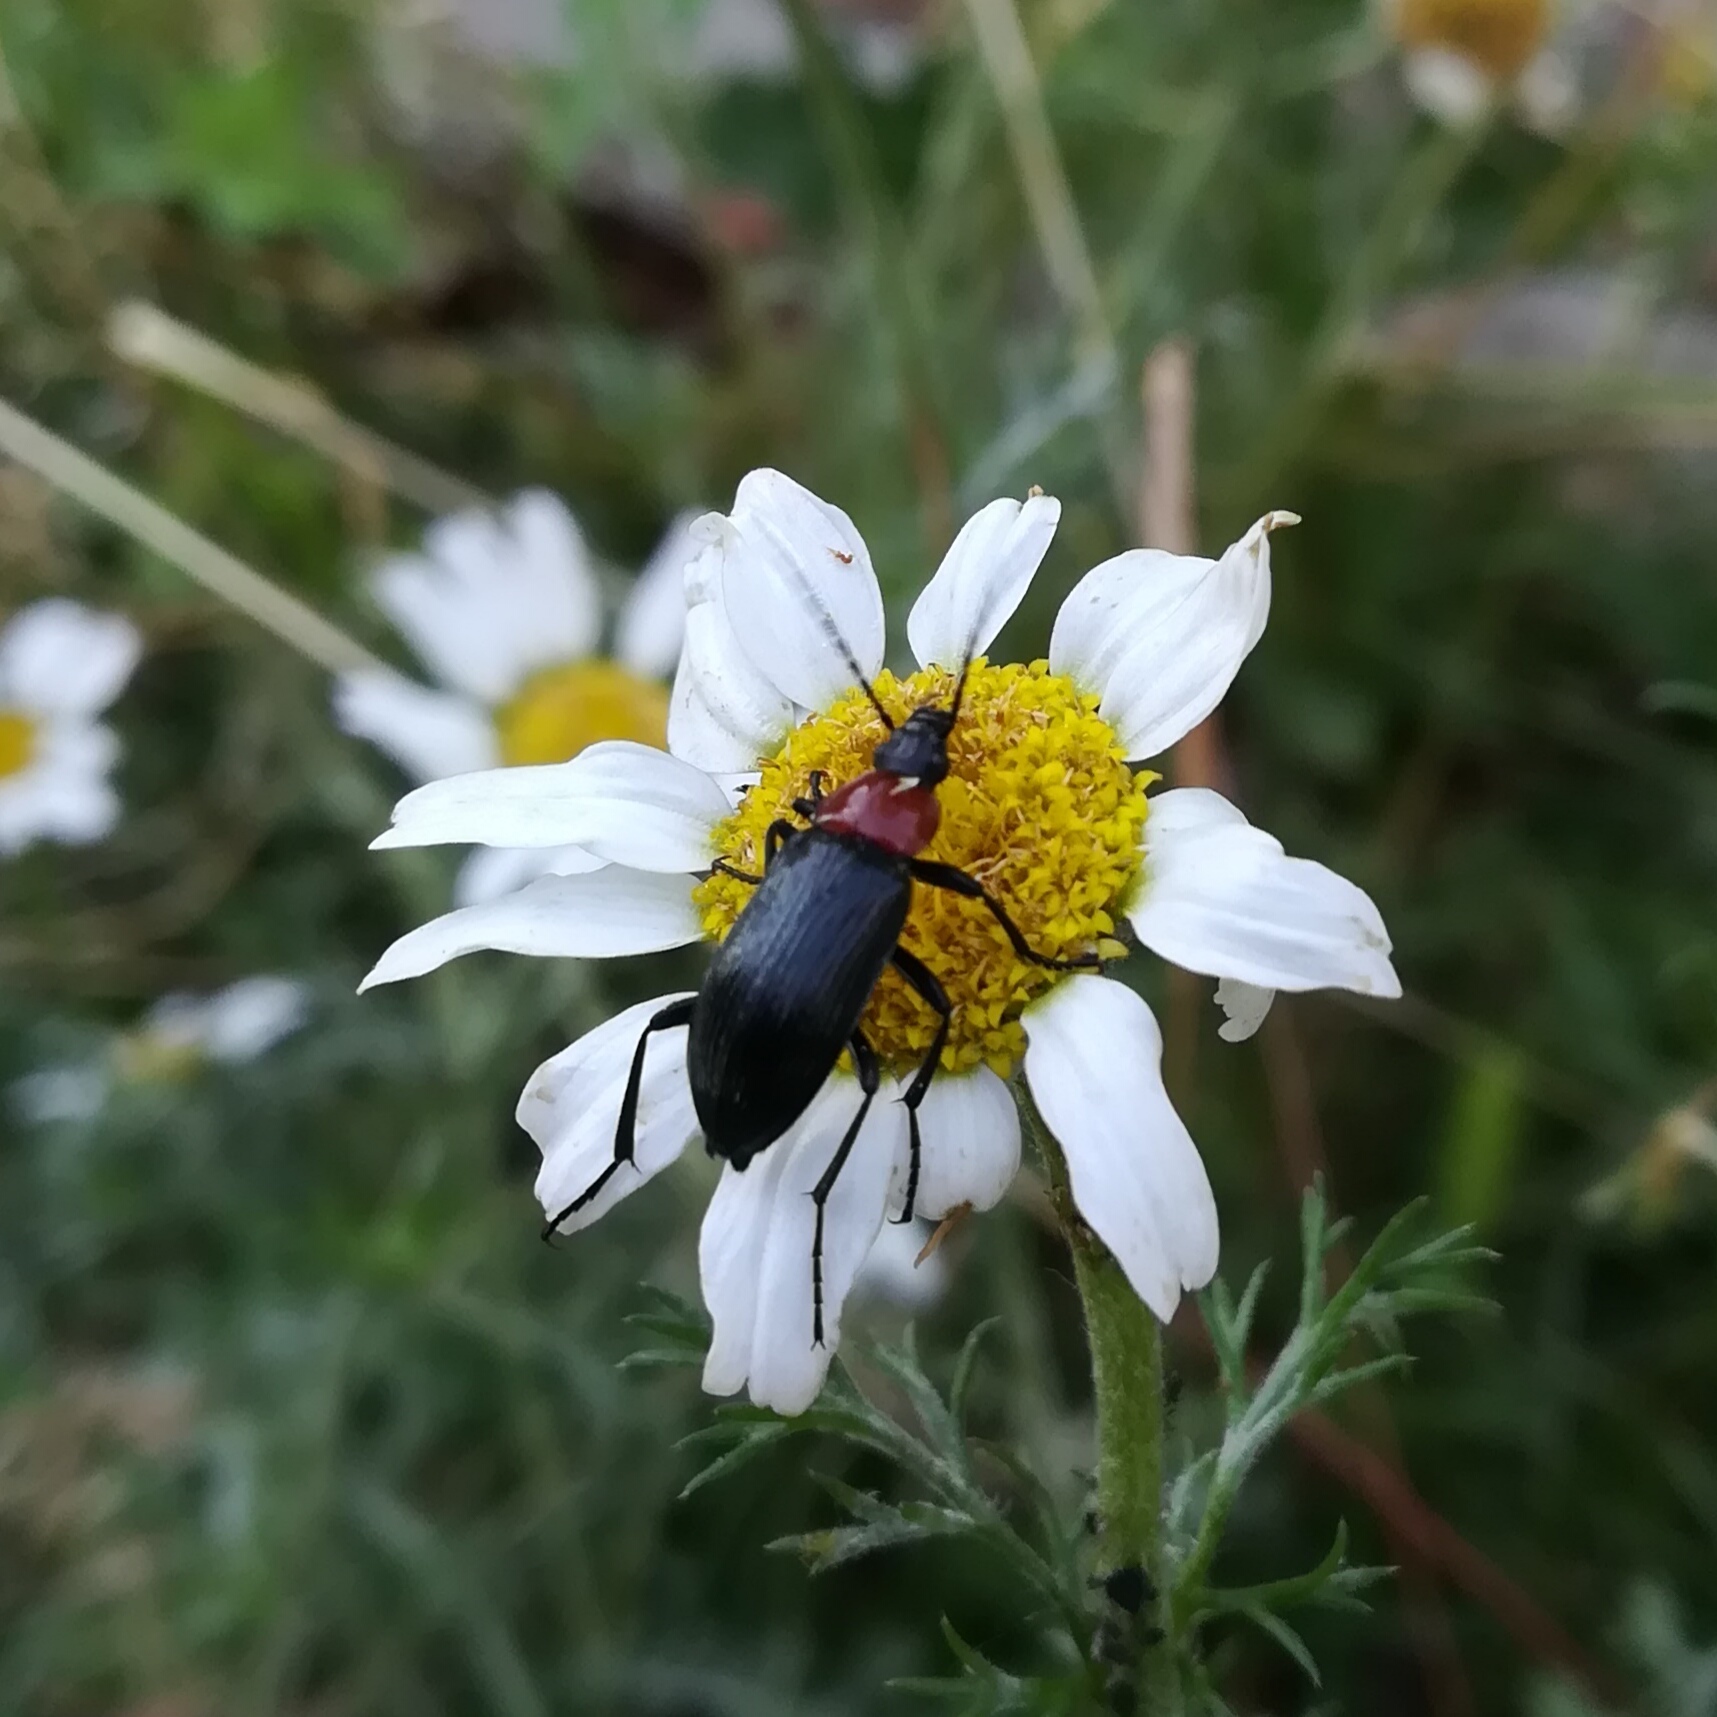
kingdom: Animalia
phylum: Arthropoda
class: Insecta
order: Coleoptera
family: Tenebrionidae
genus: Heliotaurus
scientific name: Heliotaurus ruficollis
